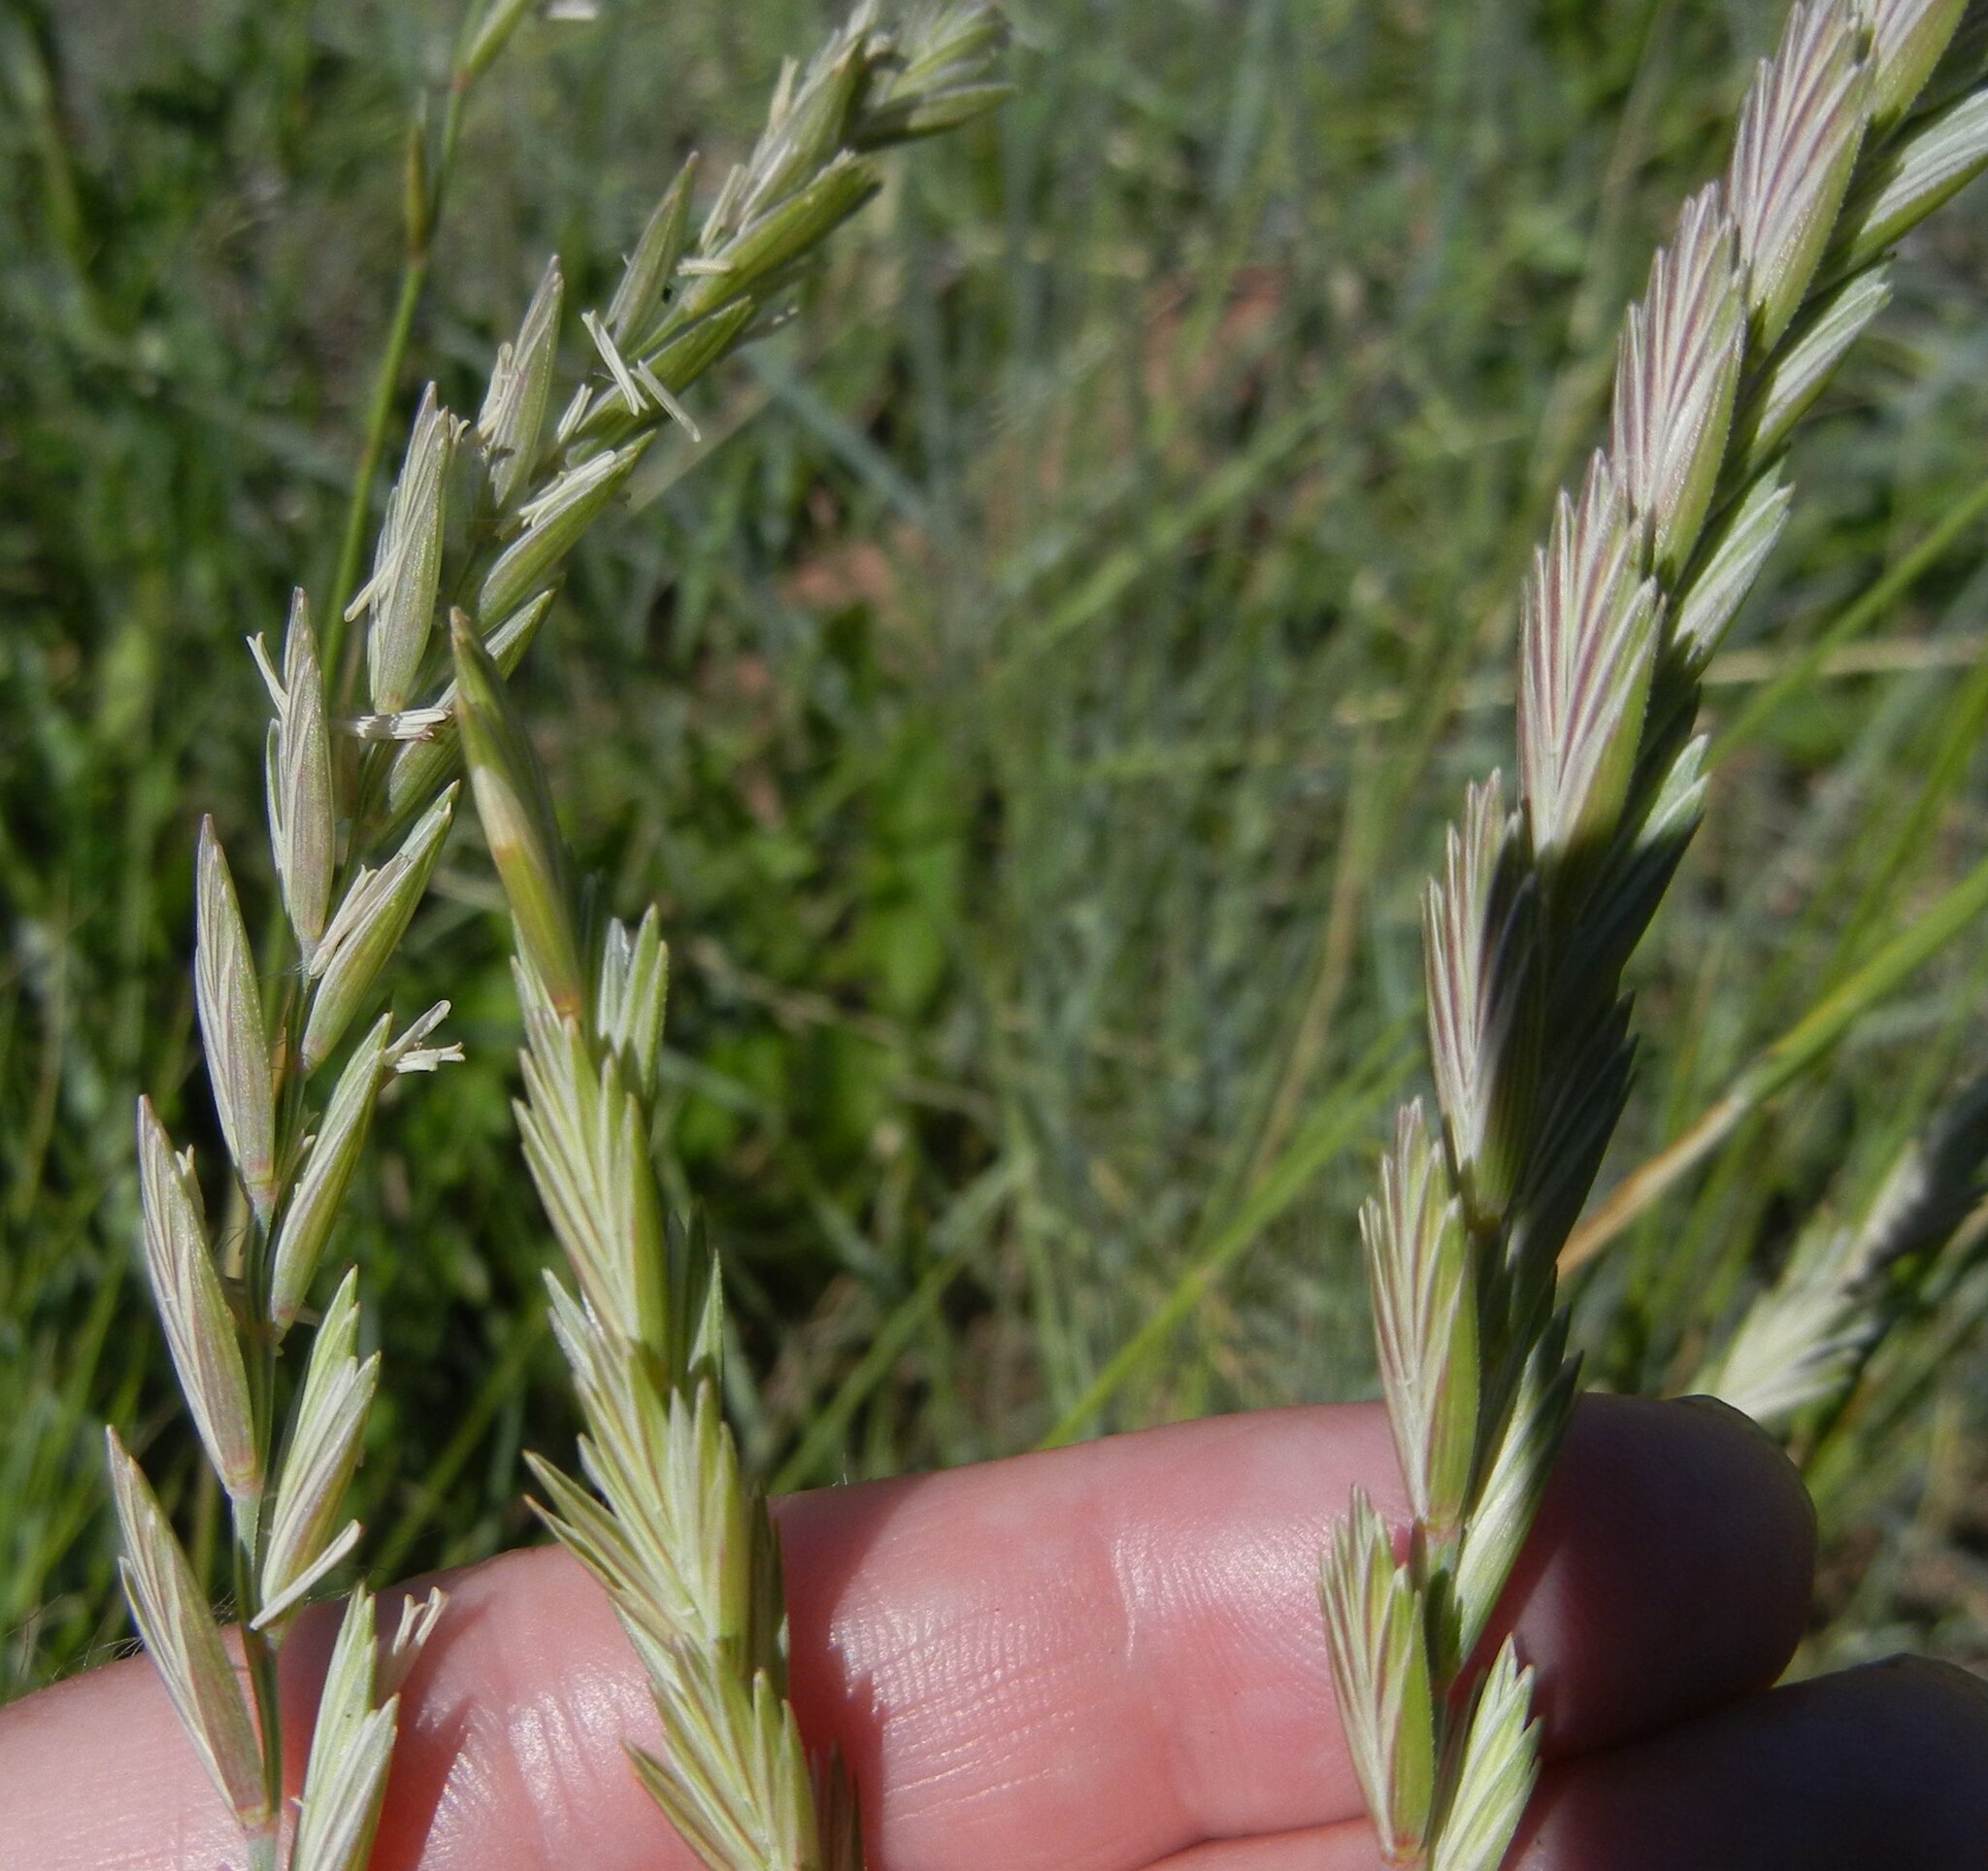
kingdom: Plantae
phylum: Tracheophyta
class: Liliopsida
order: Poales
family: Poaceae
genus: Elymus
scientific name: Elymus athericus
